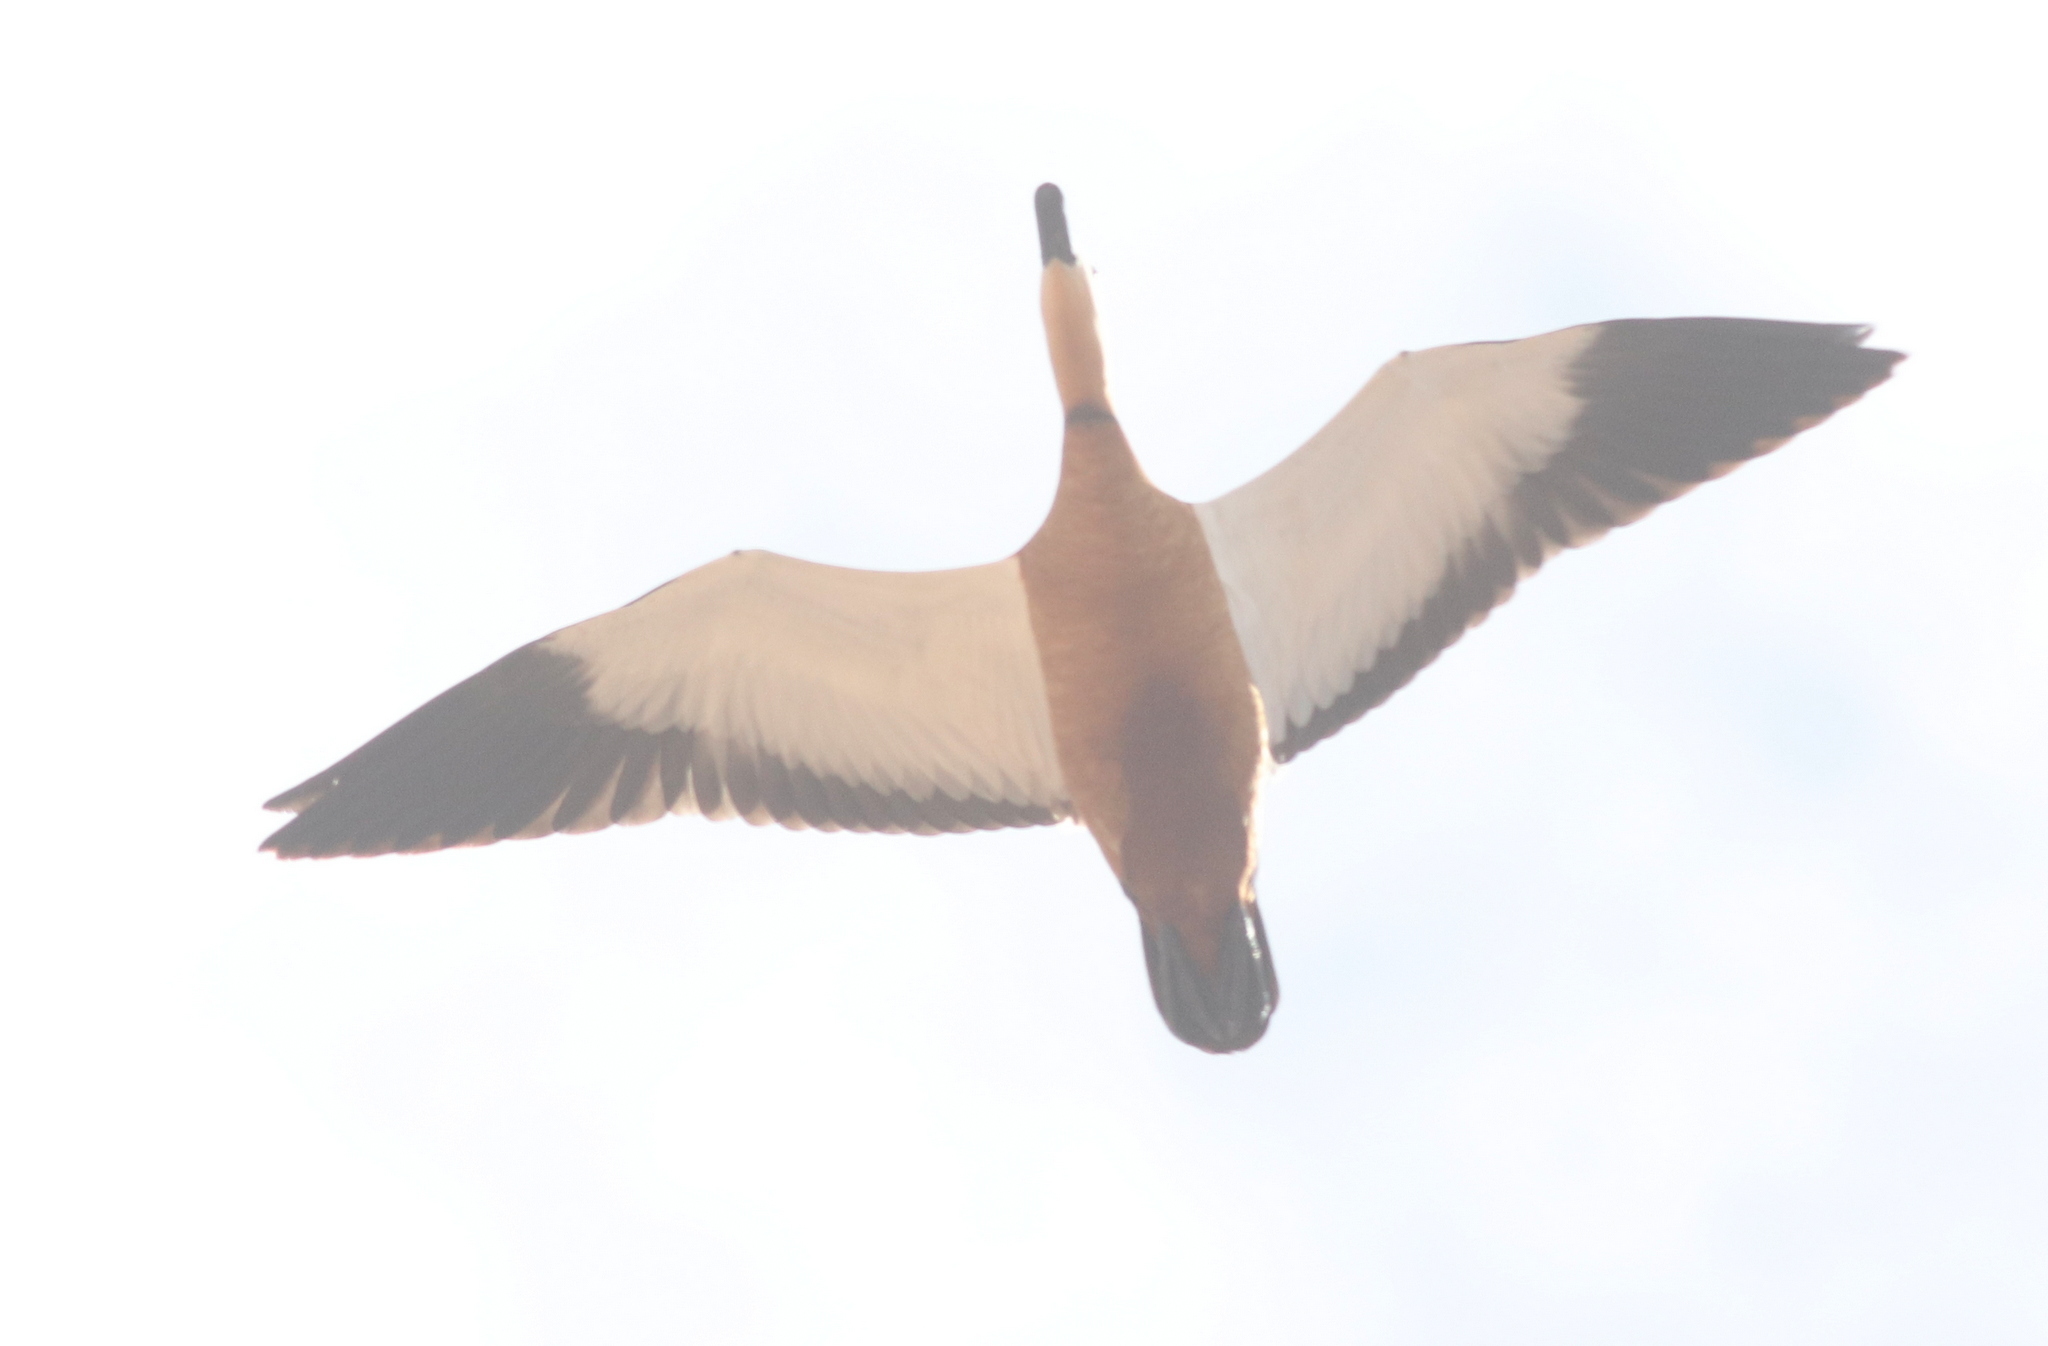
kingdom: Animalia
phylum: Chordata
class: Aves
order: Anseriformes
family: Anatidae
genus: Tadorna
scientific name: Tadorna ferruginea
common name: Ruddy shelduck
